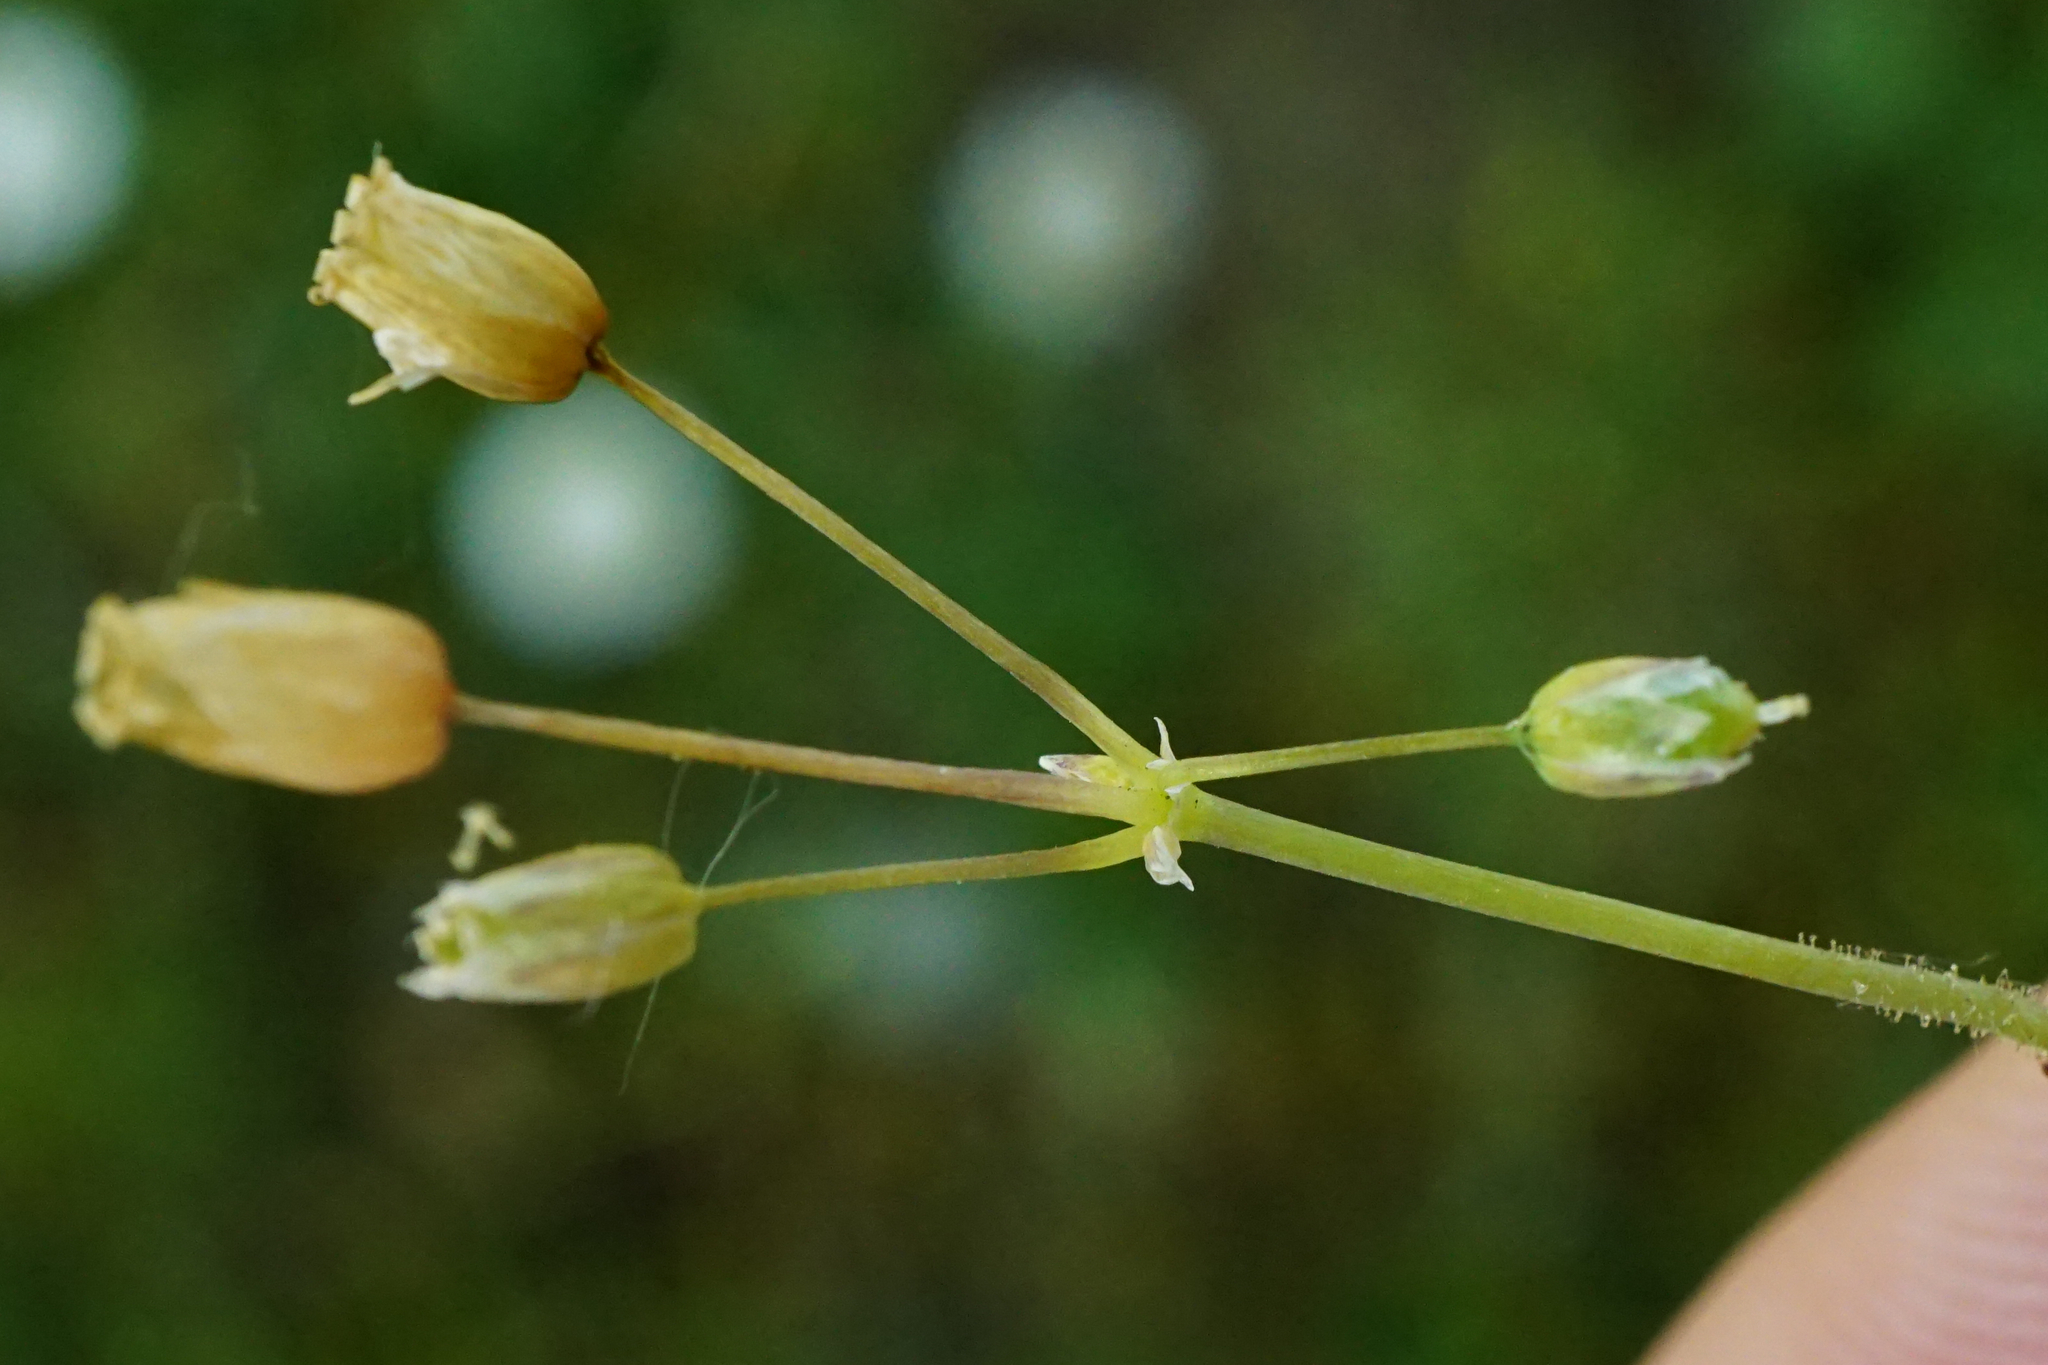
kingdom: Plantae
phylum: Tracheophyta
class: Magnoliopsida
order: Caryophyllales
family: Caryophyllaceae
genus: Holosteum
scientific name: Holosteum umbellatum
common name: Jagged chickweed
